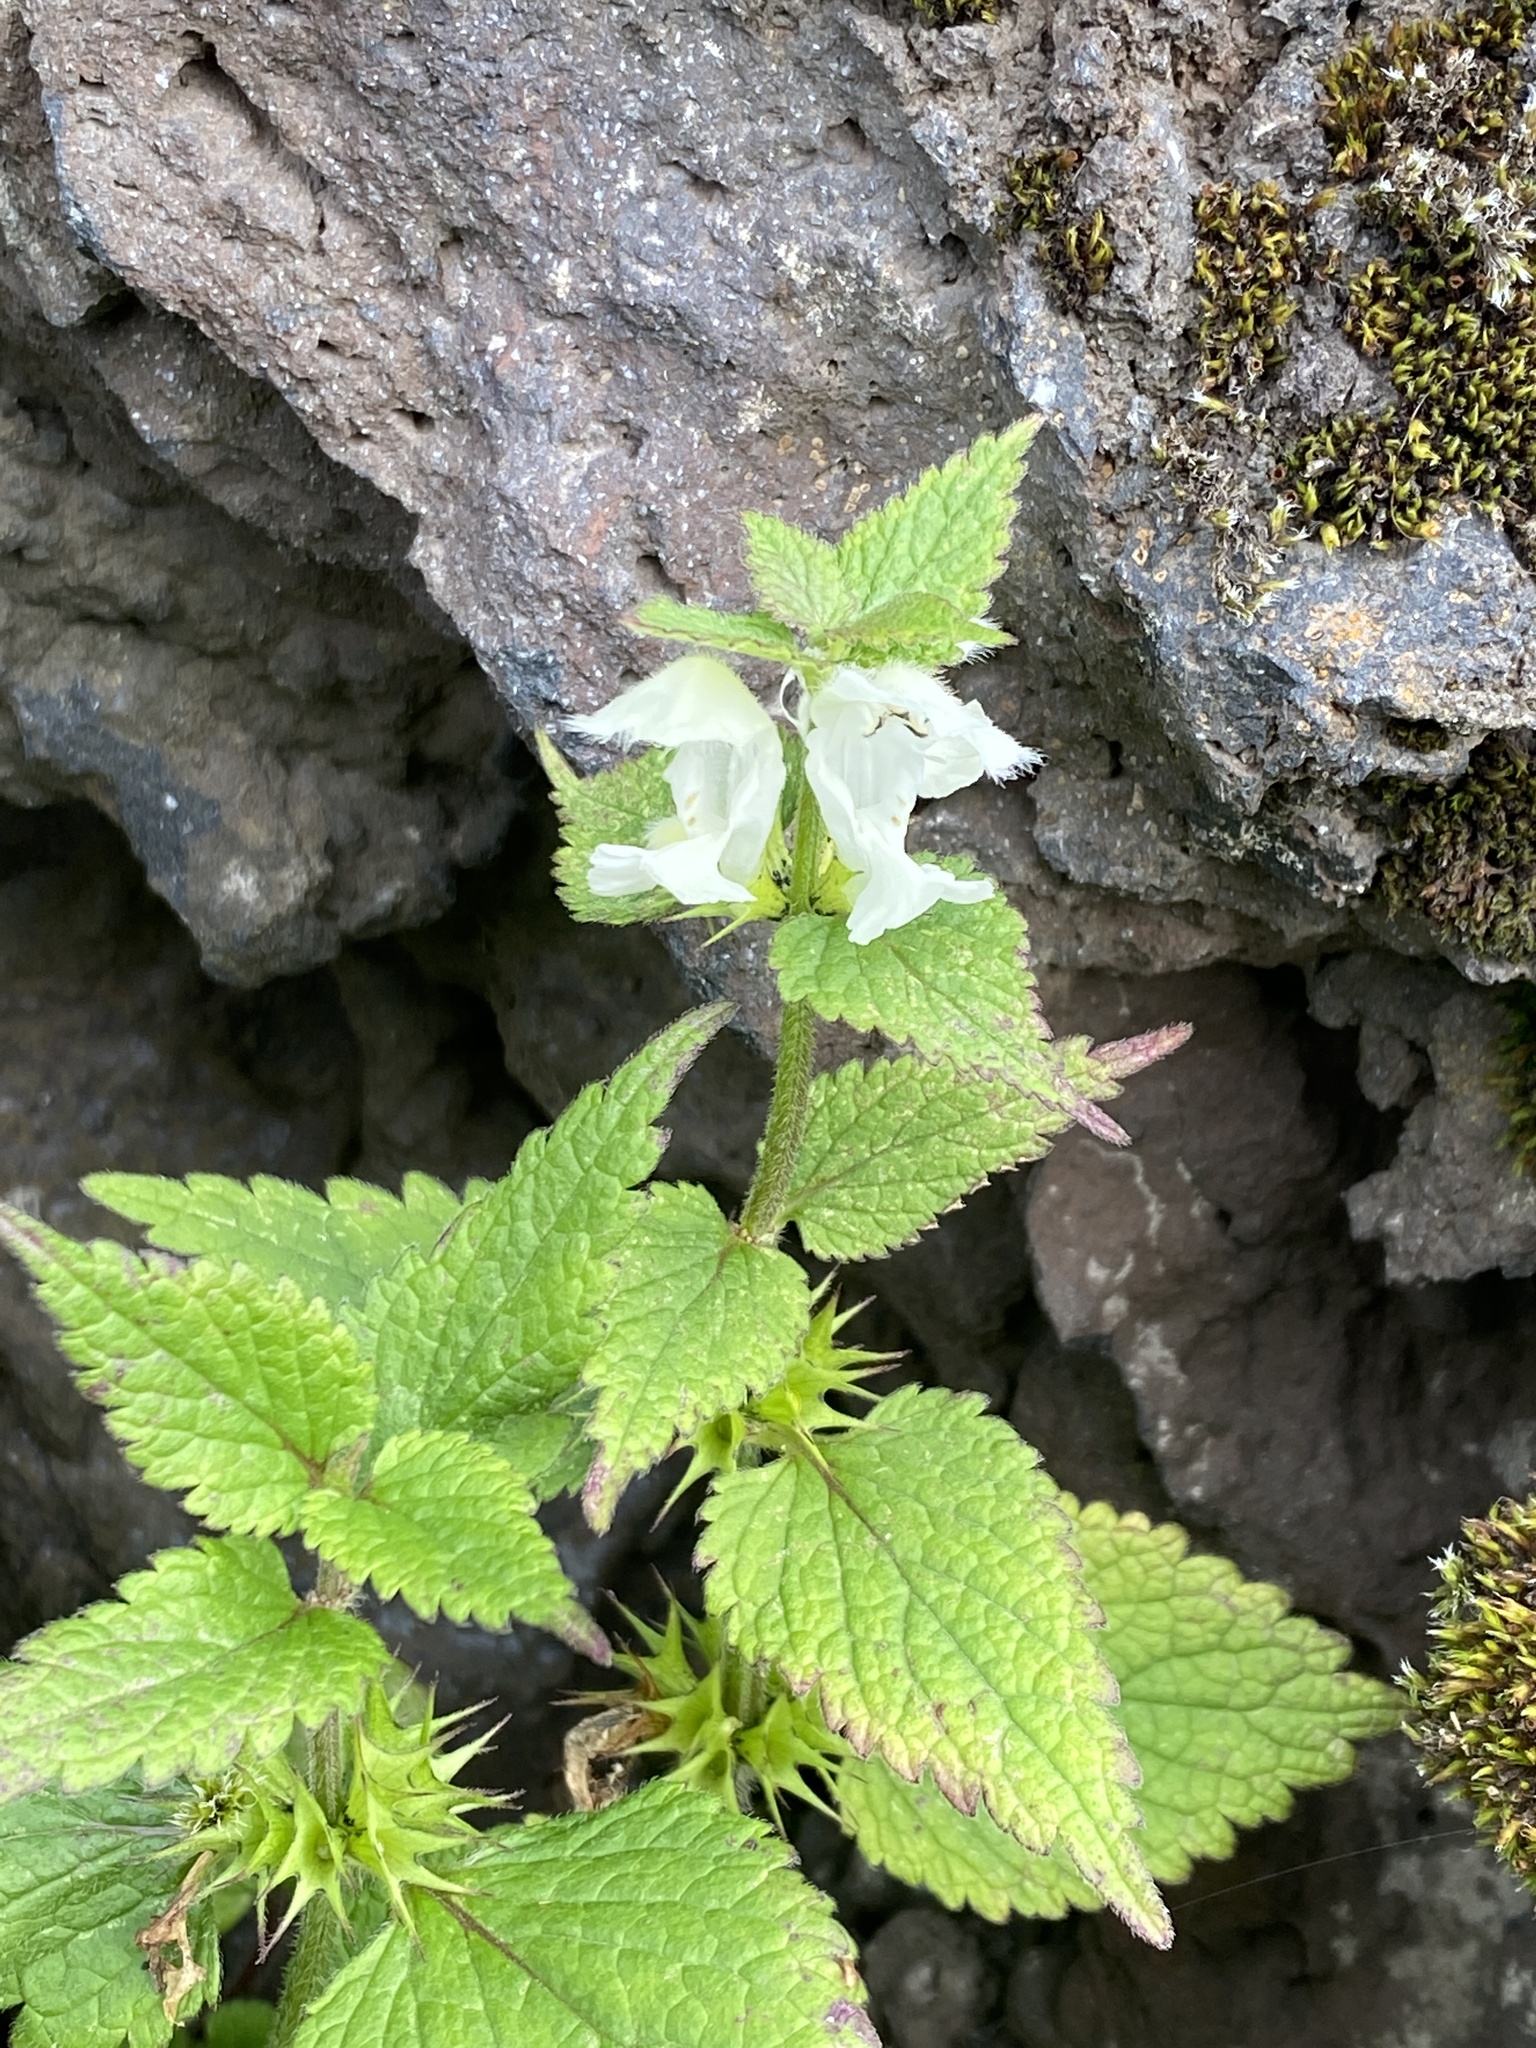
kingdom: Plantae
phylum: Tracheophyta
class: Magnoliopsida
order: Lamiales
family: Lamiaceae
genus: Lamium
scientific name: Lamium album
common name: White dead-nettle
